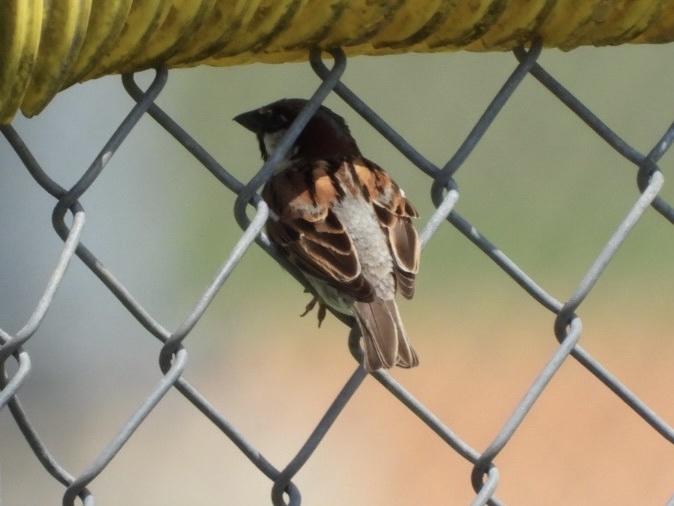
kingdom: Animalia
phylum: Chordata
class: Aves
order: Passeriformes
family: Passeridae
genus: Passer
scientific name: Passer domesticus
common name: House sparrow
